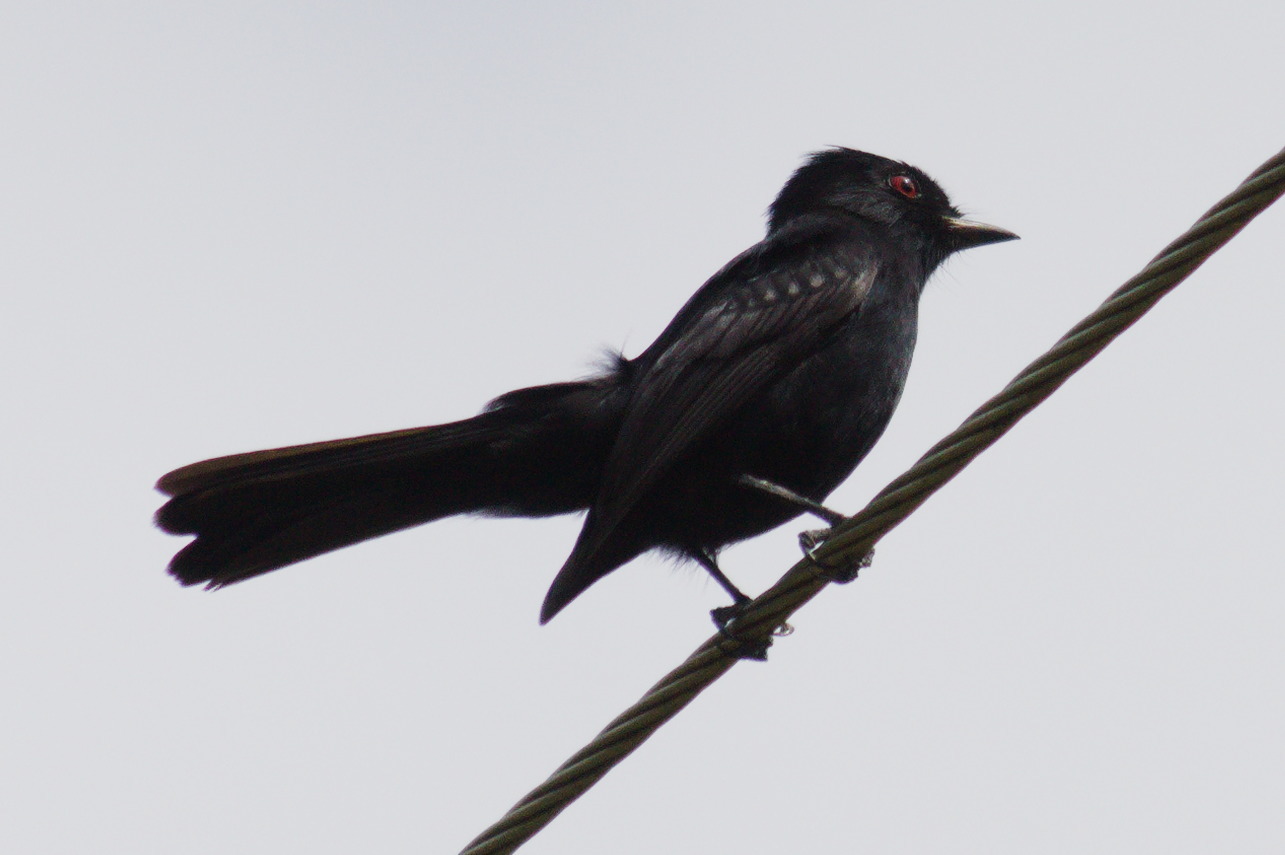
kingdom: Animalia
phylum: Chordata
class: Aves
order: Passeriformes
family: Tyrannidae
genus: Knipolegus
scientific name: Knipolegus hudsoni
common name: Hudson's black tyrant
